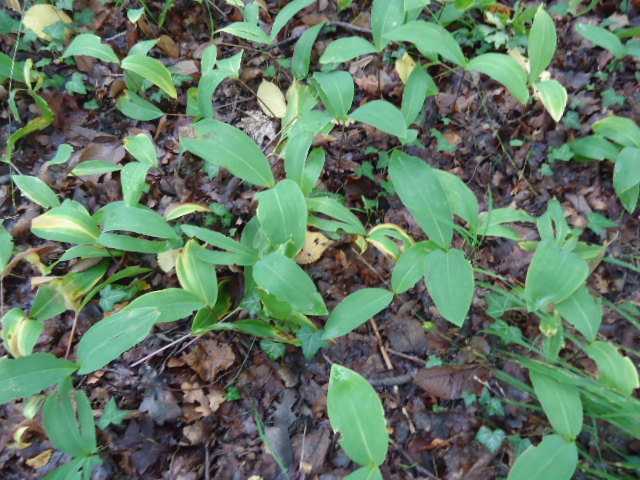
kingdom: Plantae
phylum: Tracheophyta
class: Liliopsida
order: Asparagales
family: Asparagaceae
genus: Convallaria
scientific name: Convallaria majalis
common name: Lily-of-the-valley
